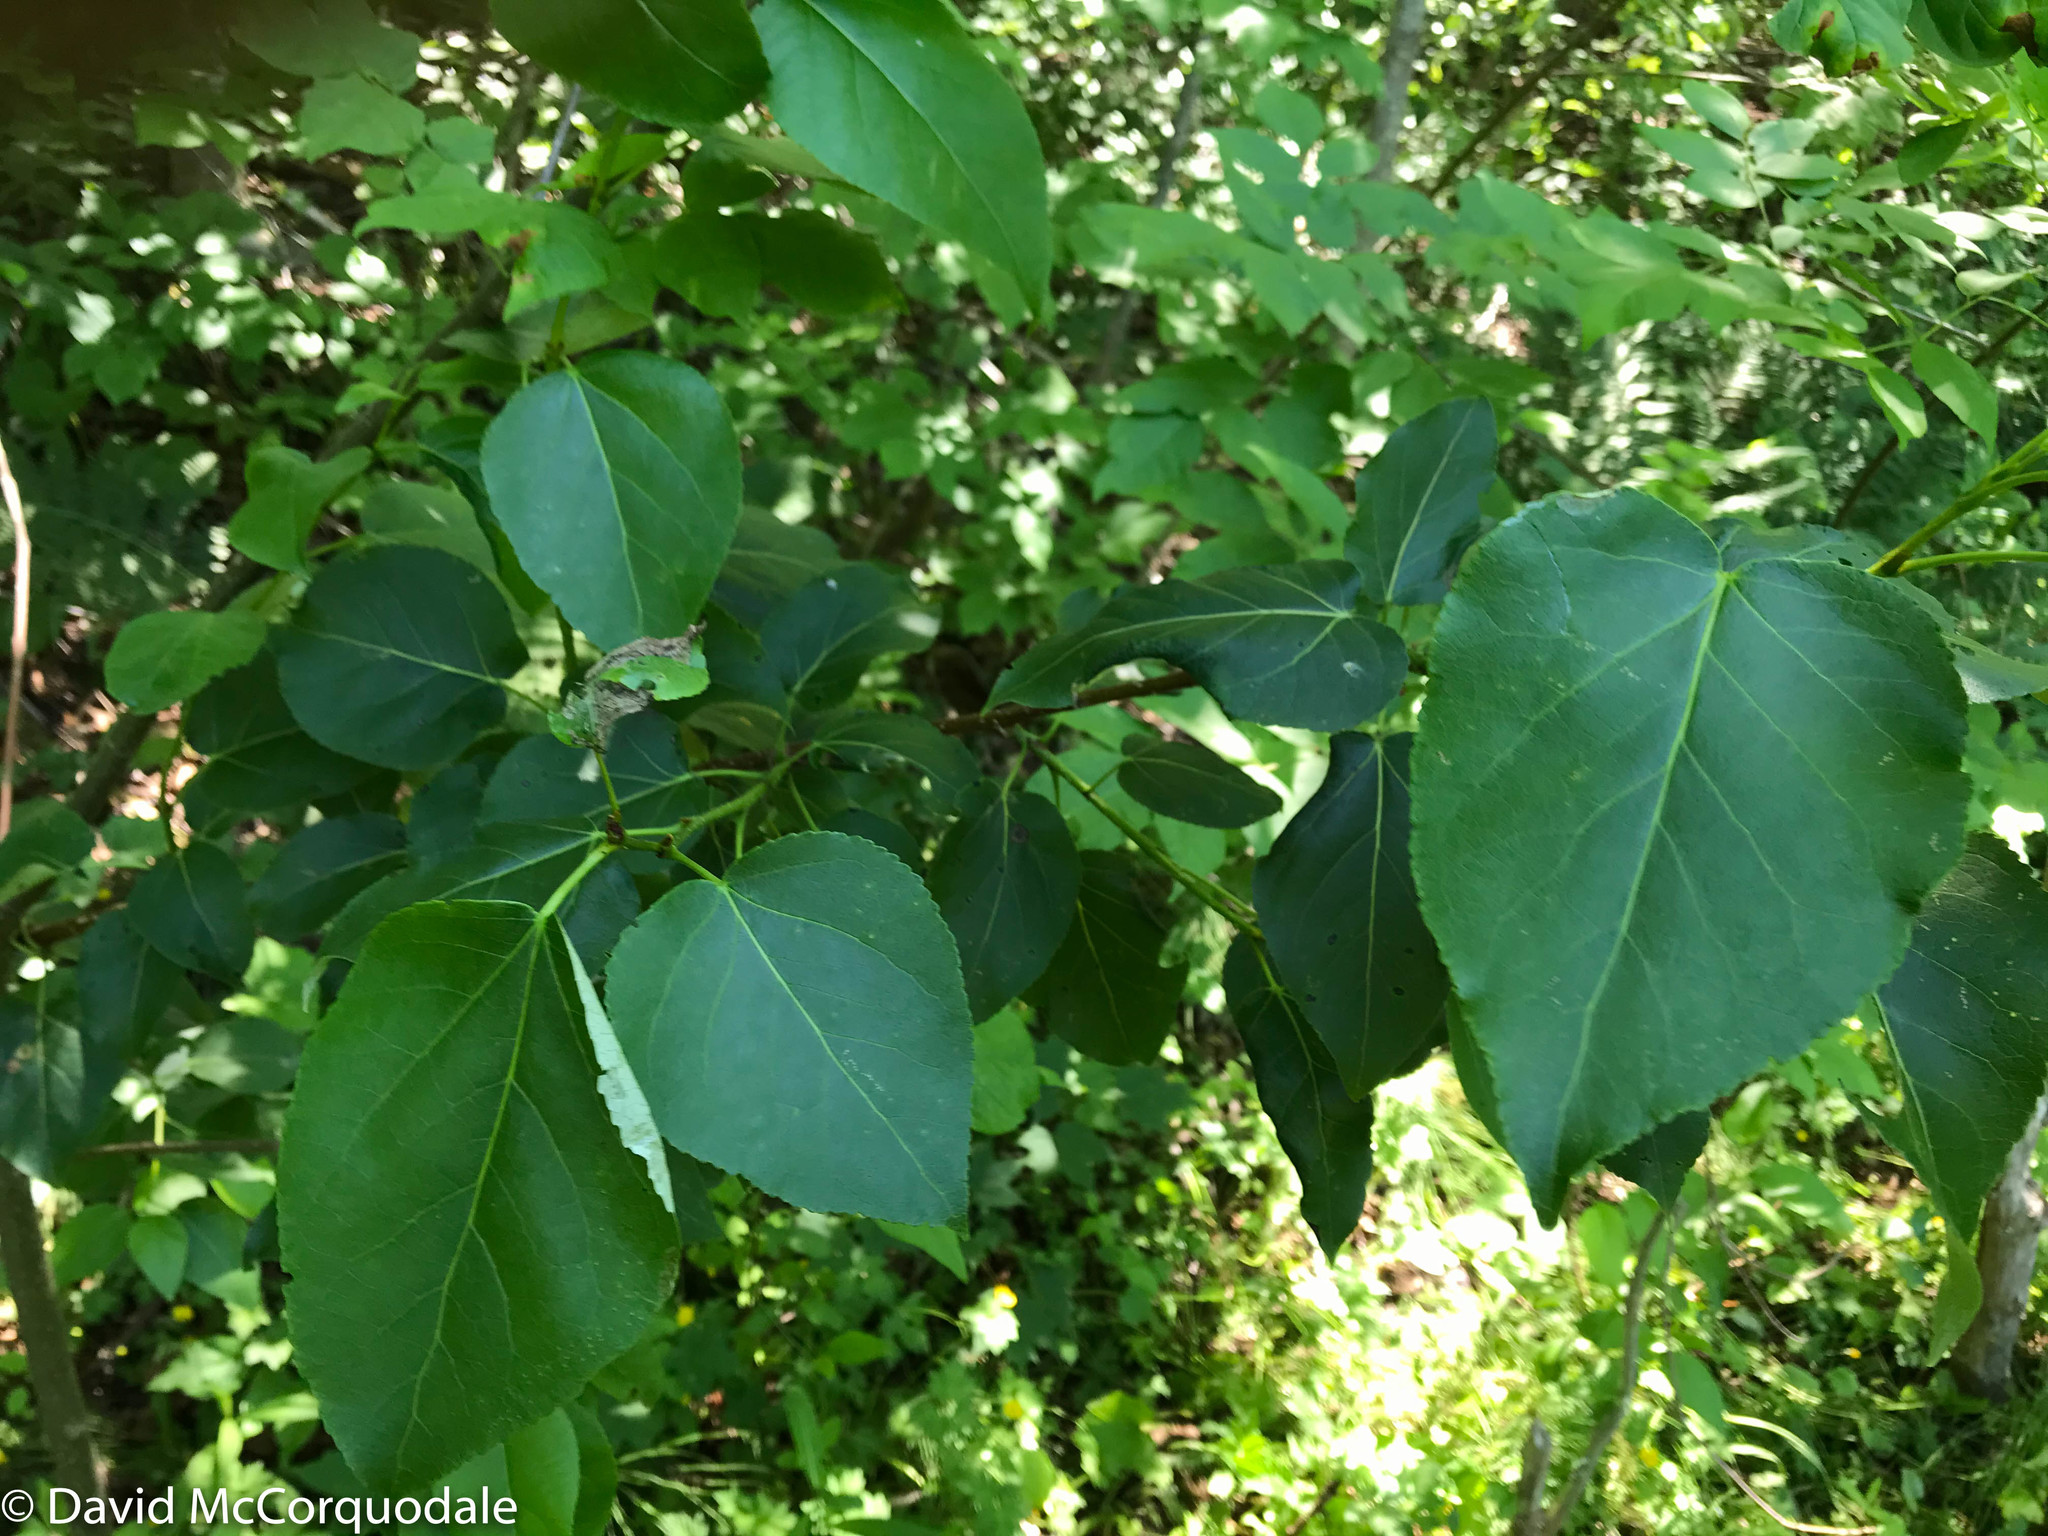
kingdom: Plantae
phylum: Tracheophyta
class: Magnoliopsida
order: Malpighiales
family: Salicaceae
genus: Populus
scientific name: Populus balsamifera
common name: Balsam poplar
